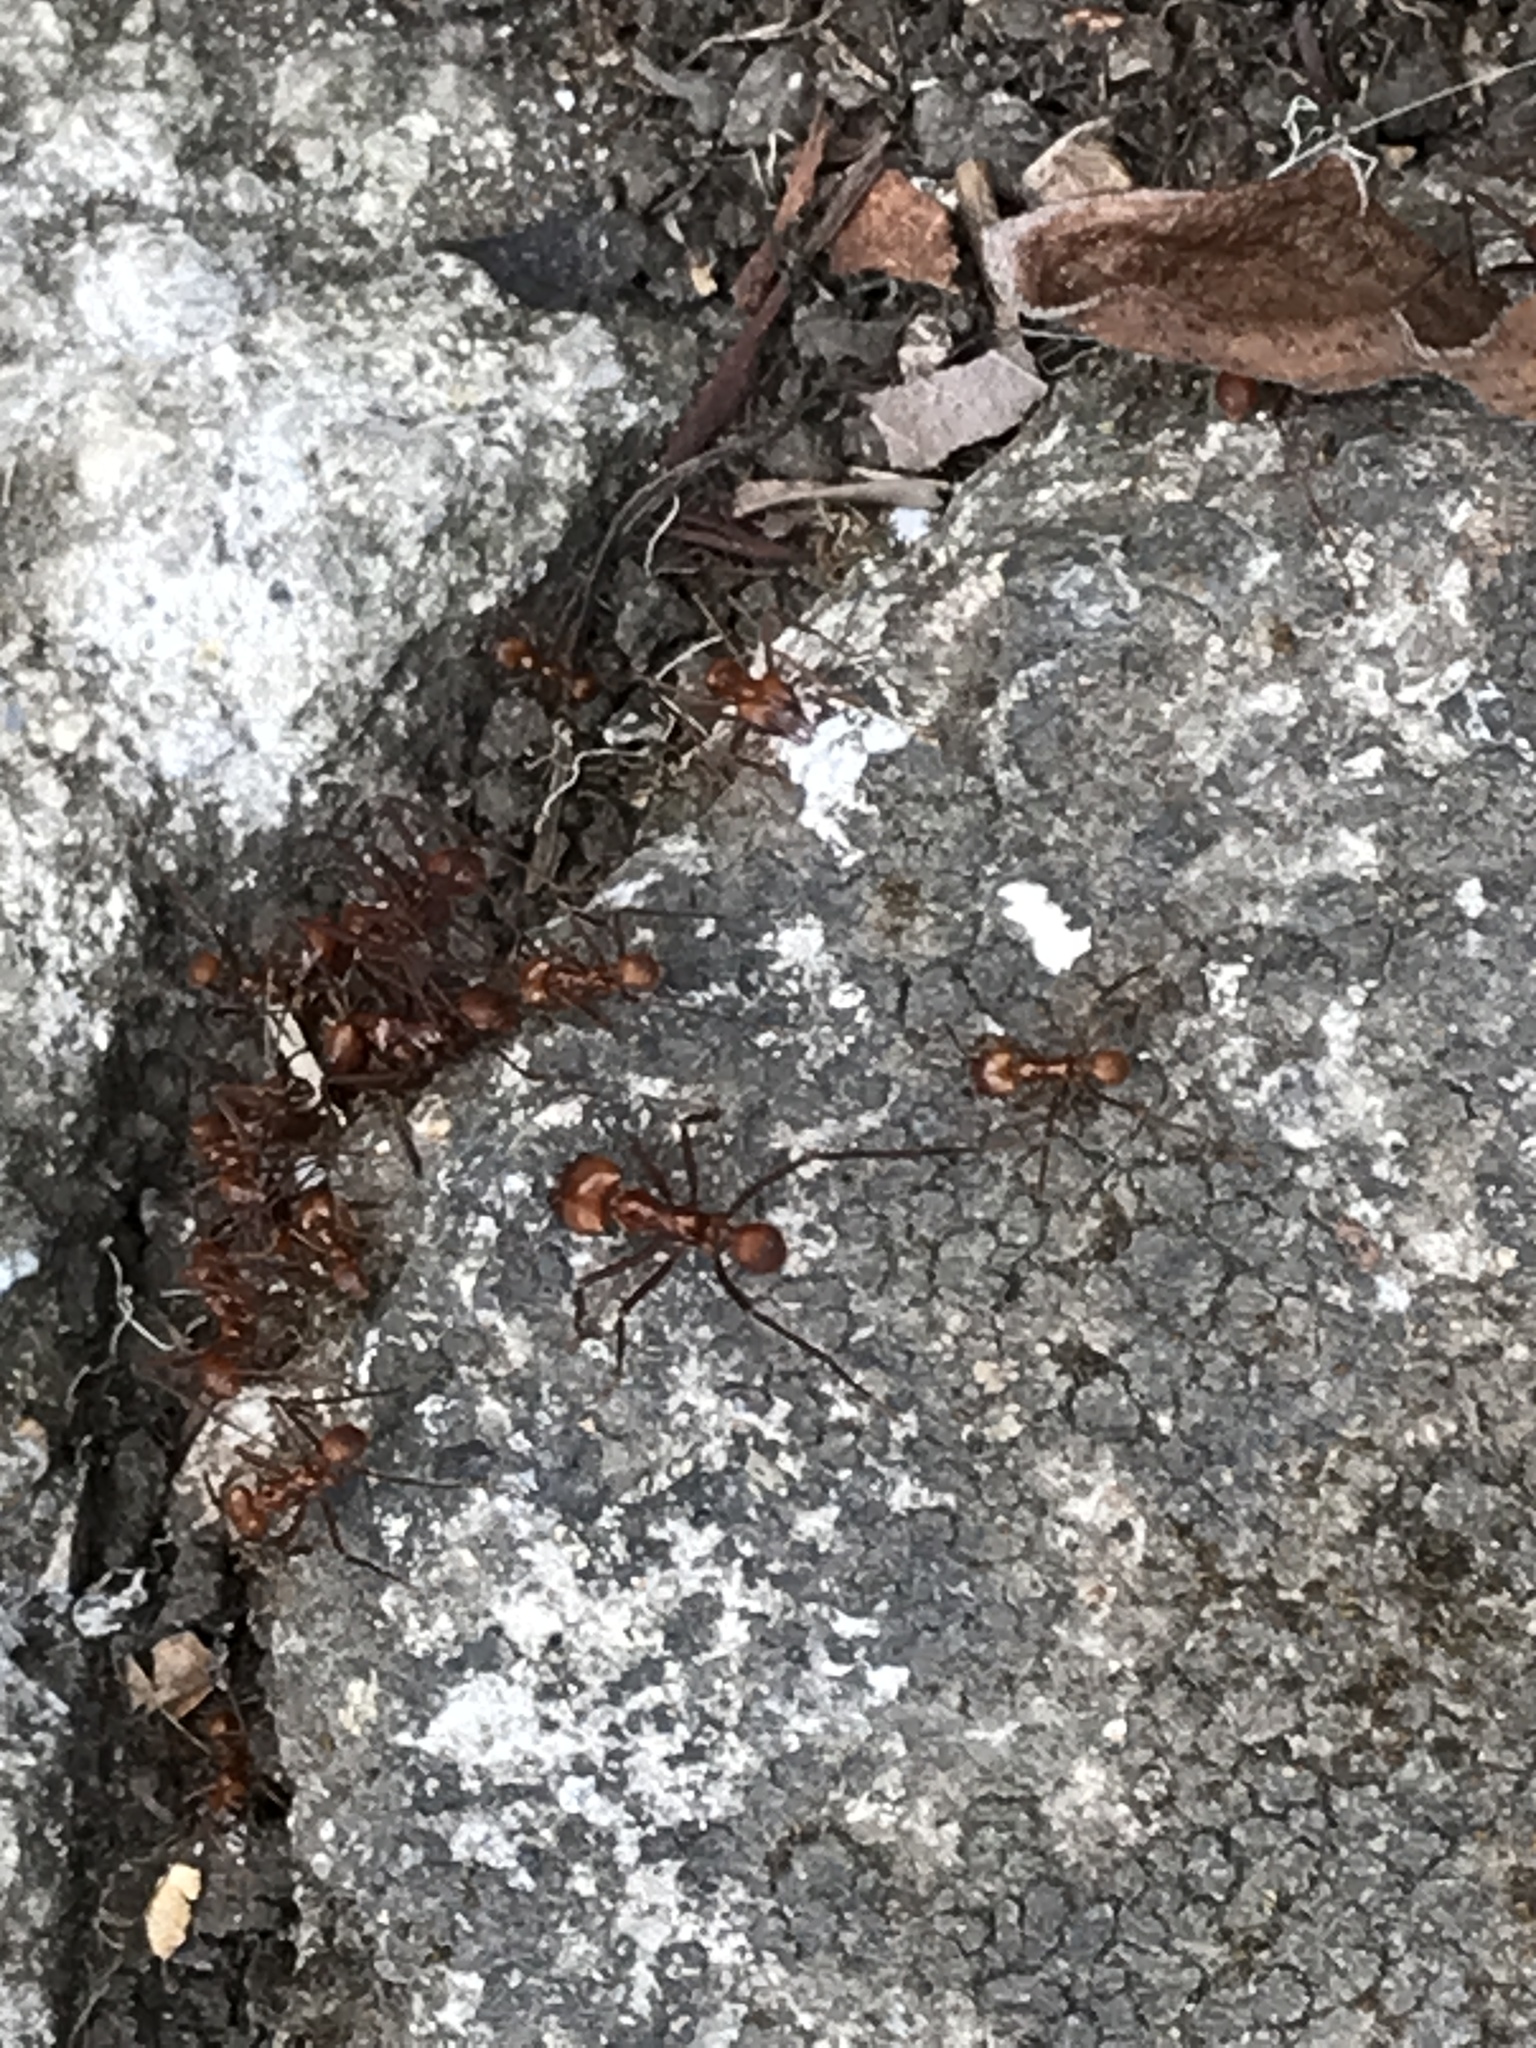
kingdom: Animalia
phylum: Arthropoda
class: Insecta
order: Hymenoptera
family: Formicidae
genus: Atta
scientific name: Atta cephalotes
